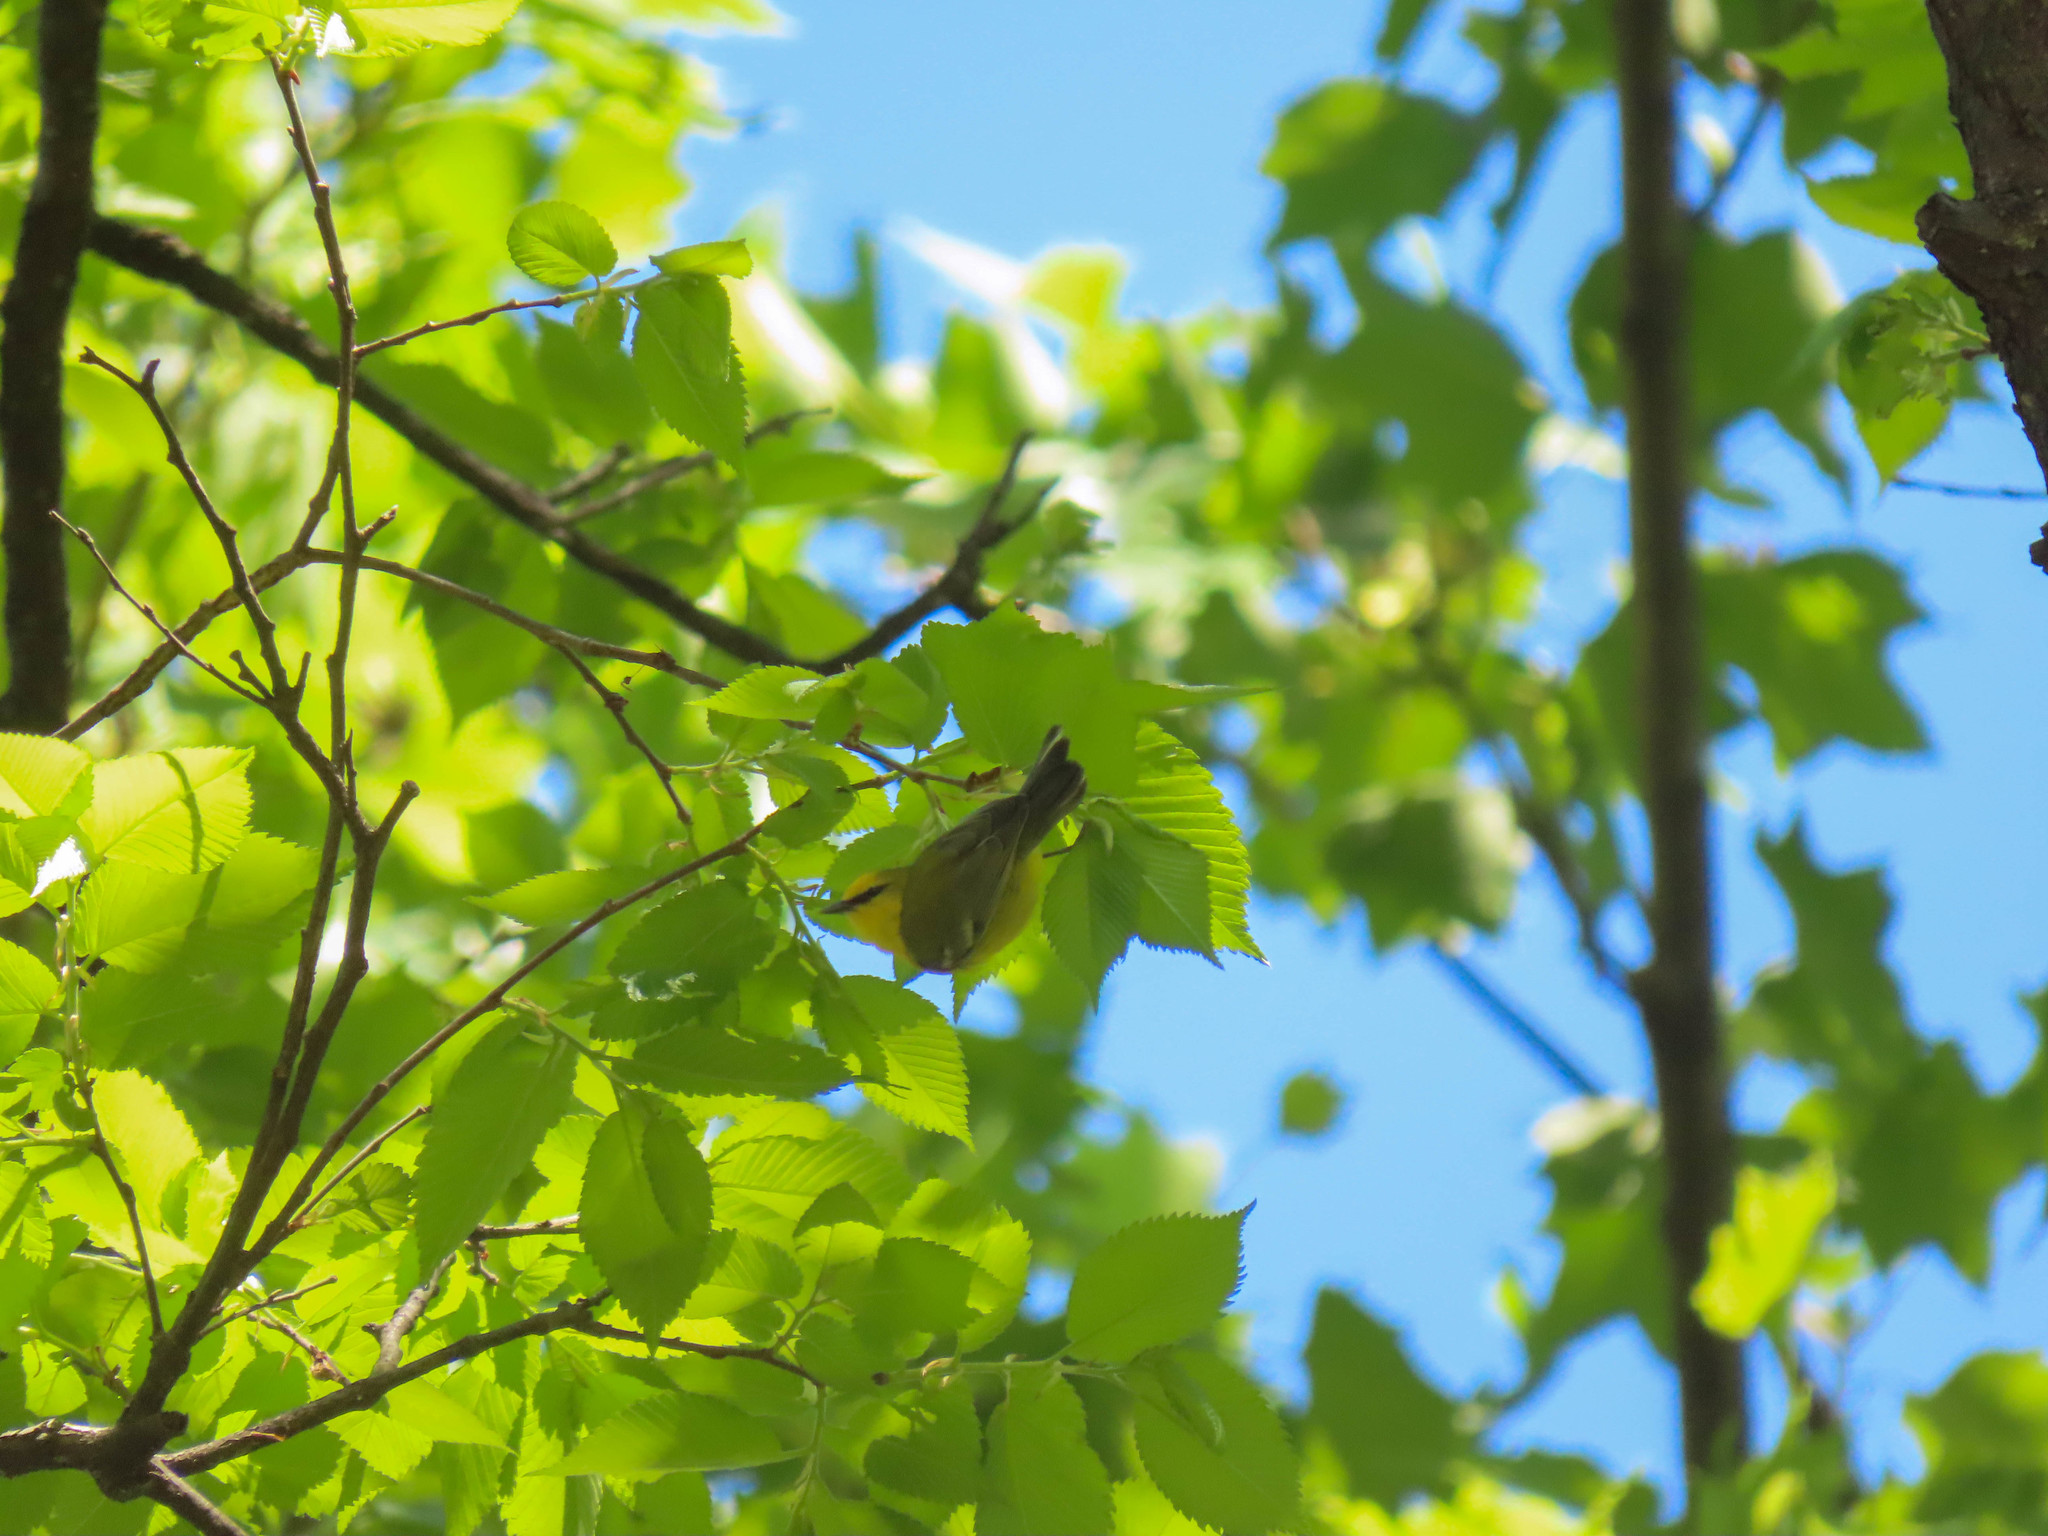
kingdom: Animalia
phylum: Chordata
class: Aves
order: Passeriformes
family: Parulidae
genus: Vermivora
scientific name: Vermivora cyanoptera
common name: Blue-winged warbler
